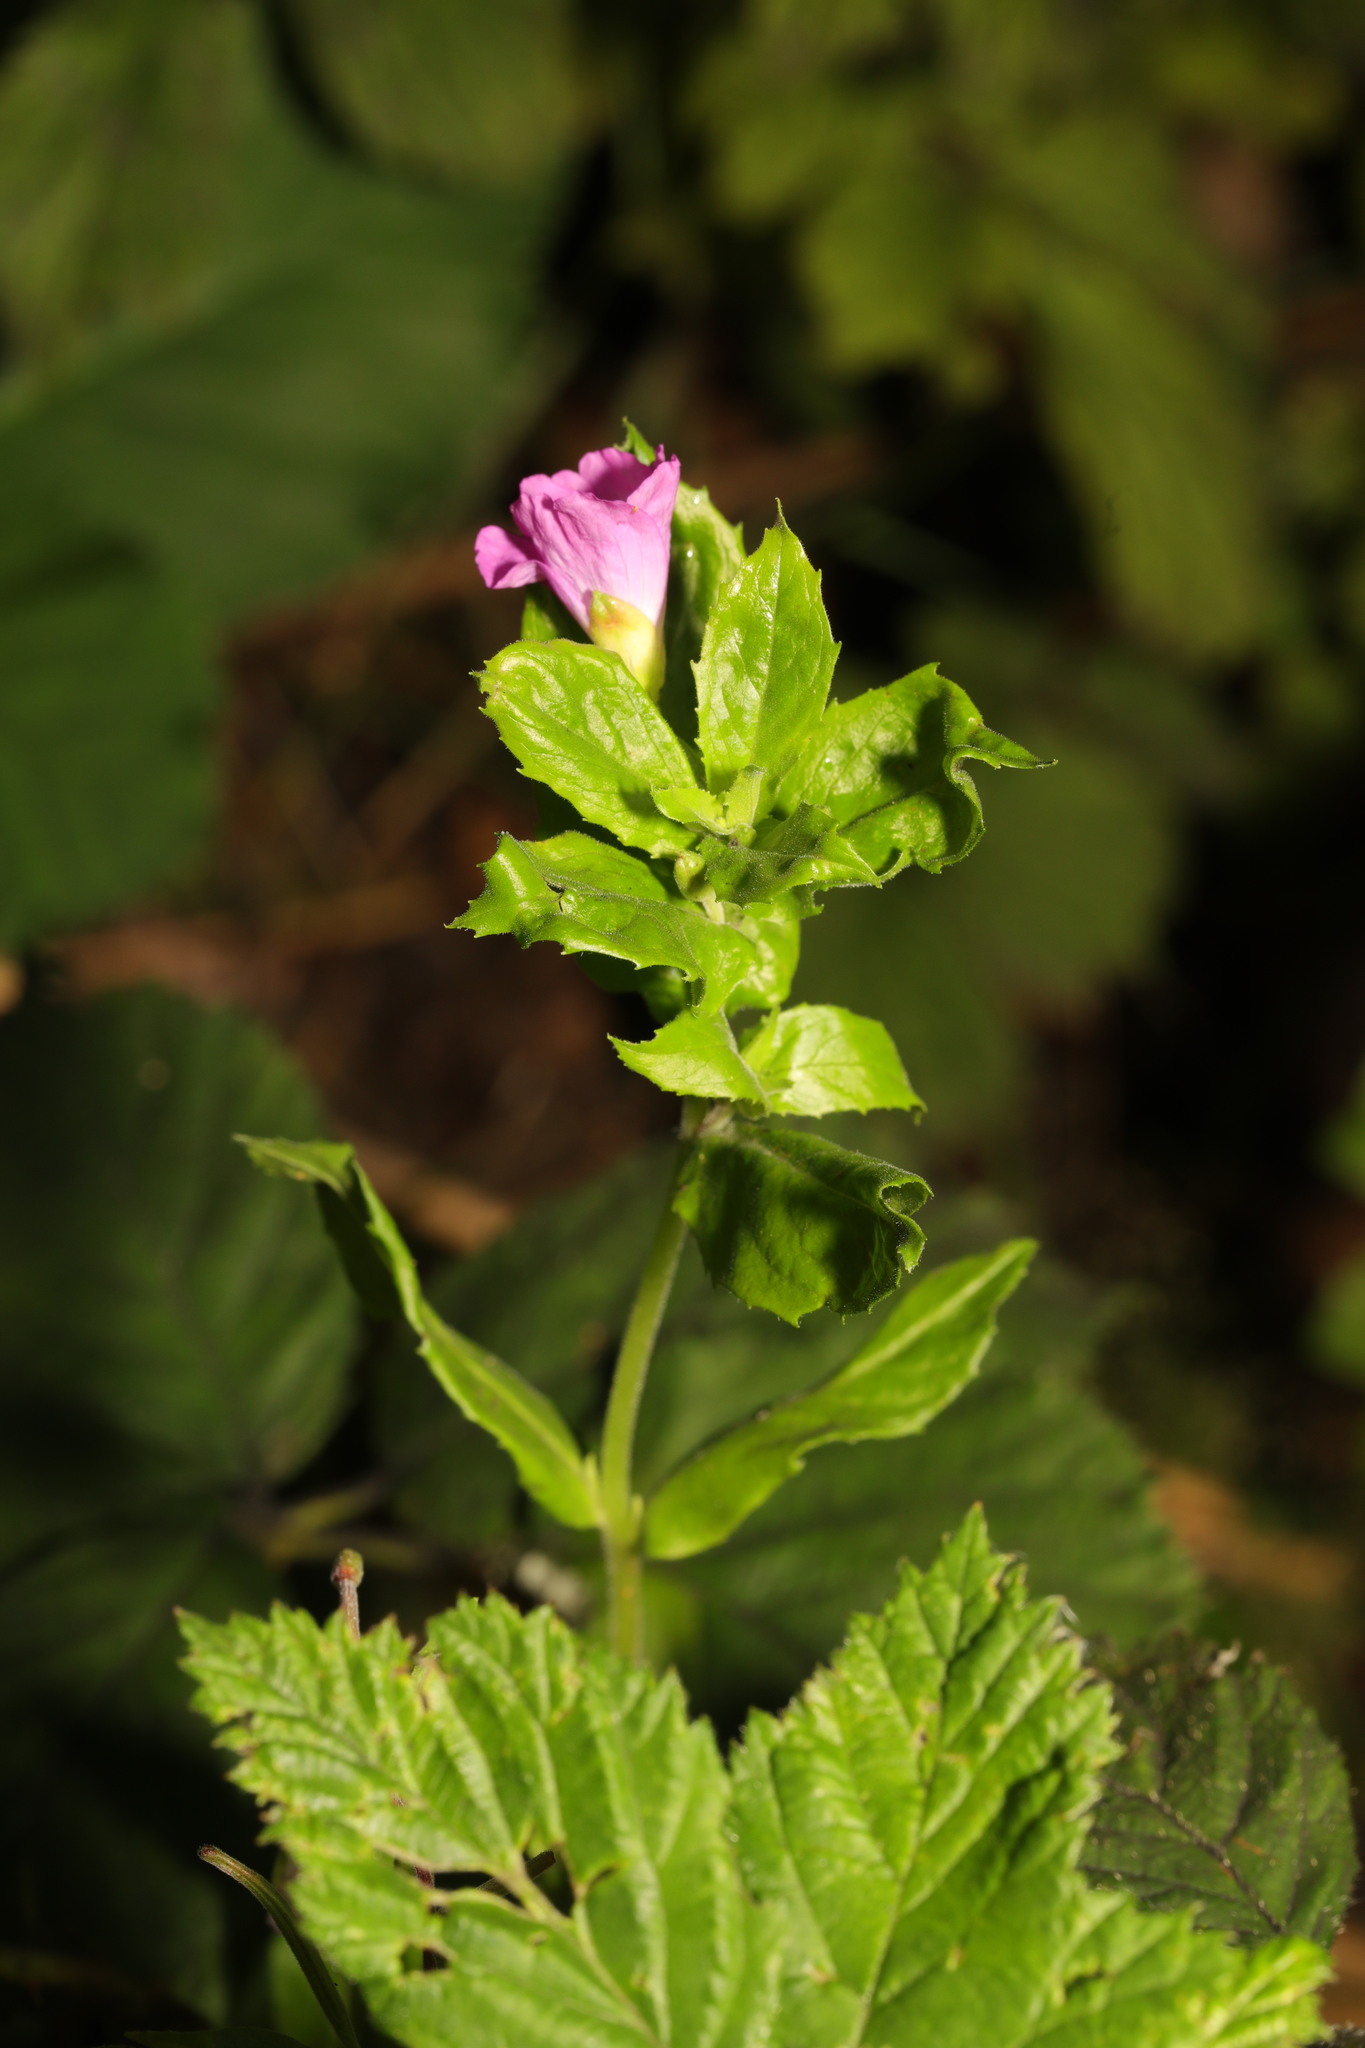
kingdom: Plantae
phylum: Tracheophyta
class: Magnoliopsida
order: Myrtales
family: Onagraceae
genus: Epilobium
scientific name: Epilobium hirsutum
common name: Great willowherb
